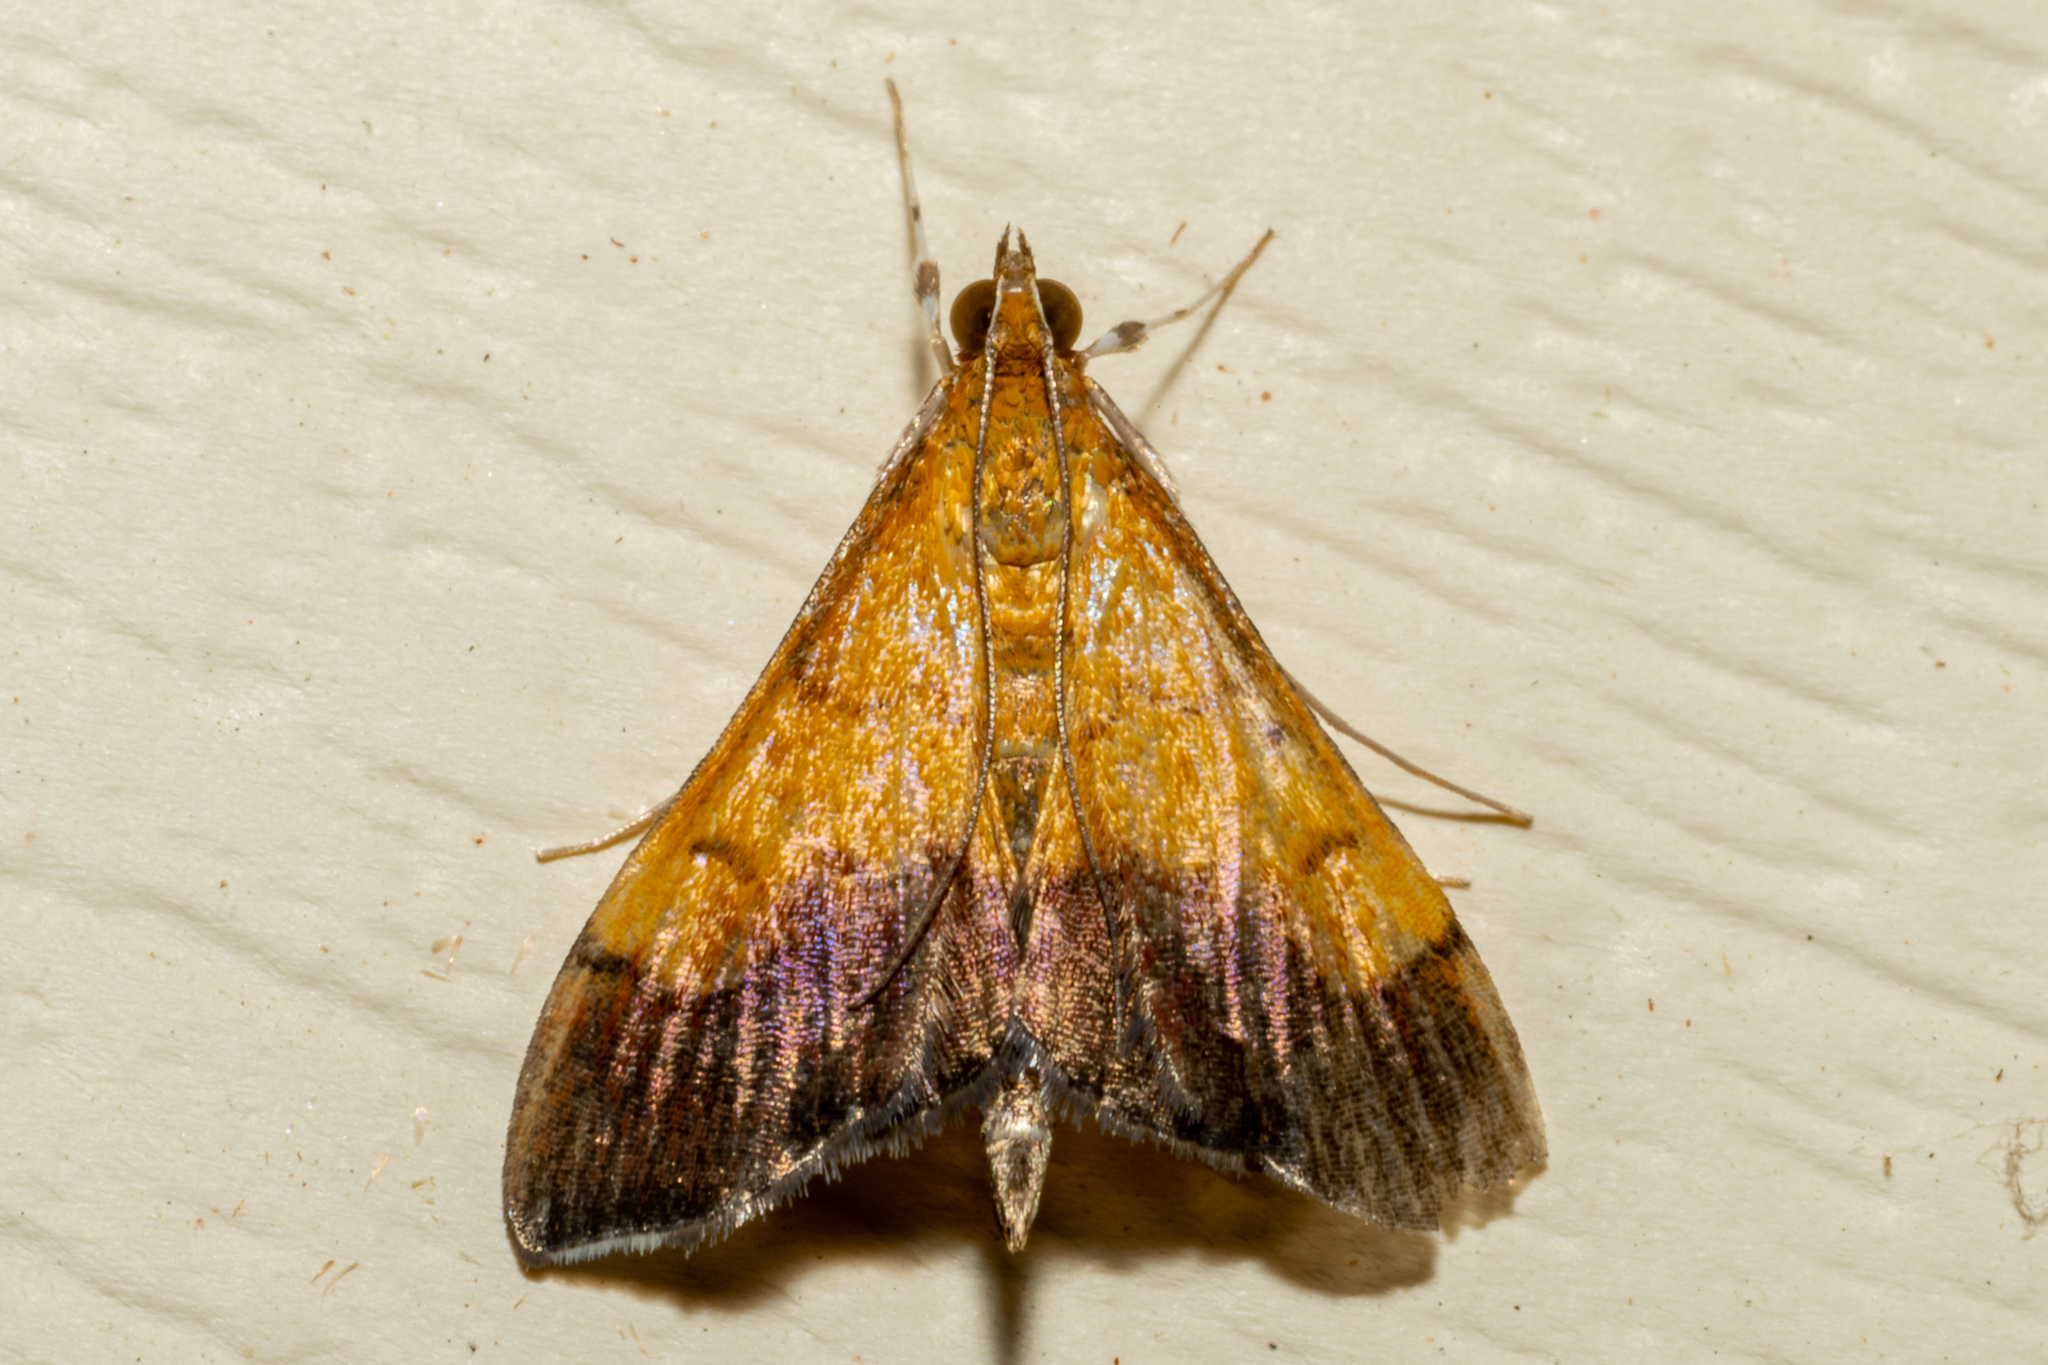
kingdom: Animalia
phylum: Arthropoda
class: Insecta
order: Lepidoptera
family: Crambidae
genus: Pyrausta
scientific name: Pyrausta bicoloralis
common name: Bicolored pyrausta moth
